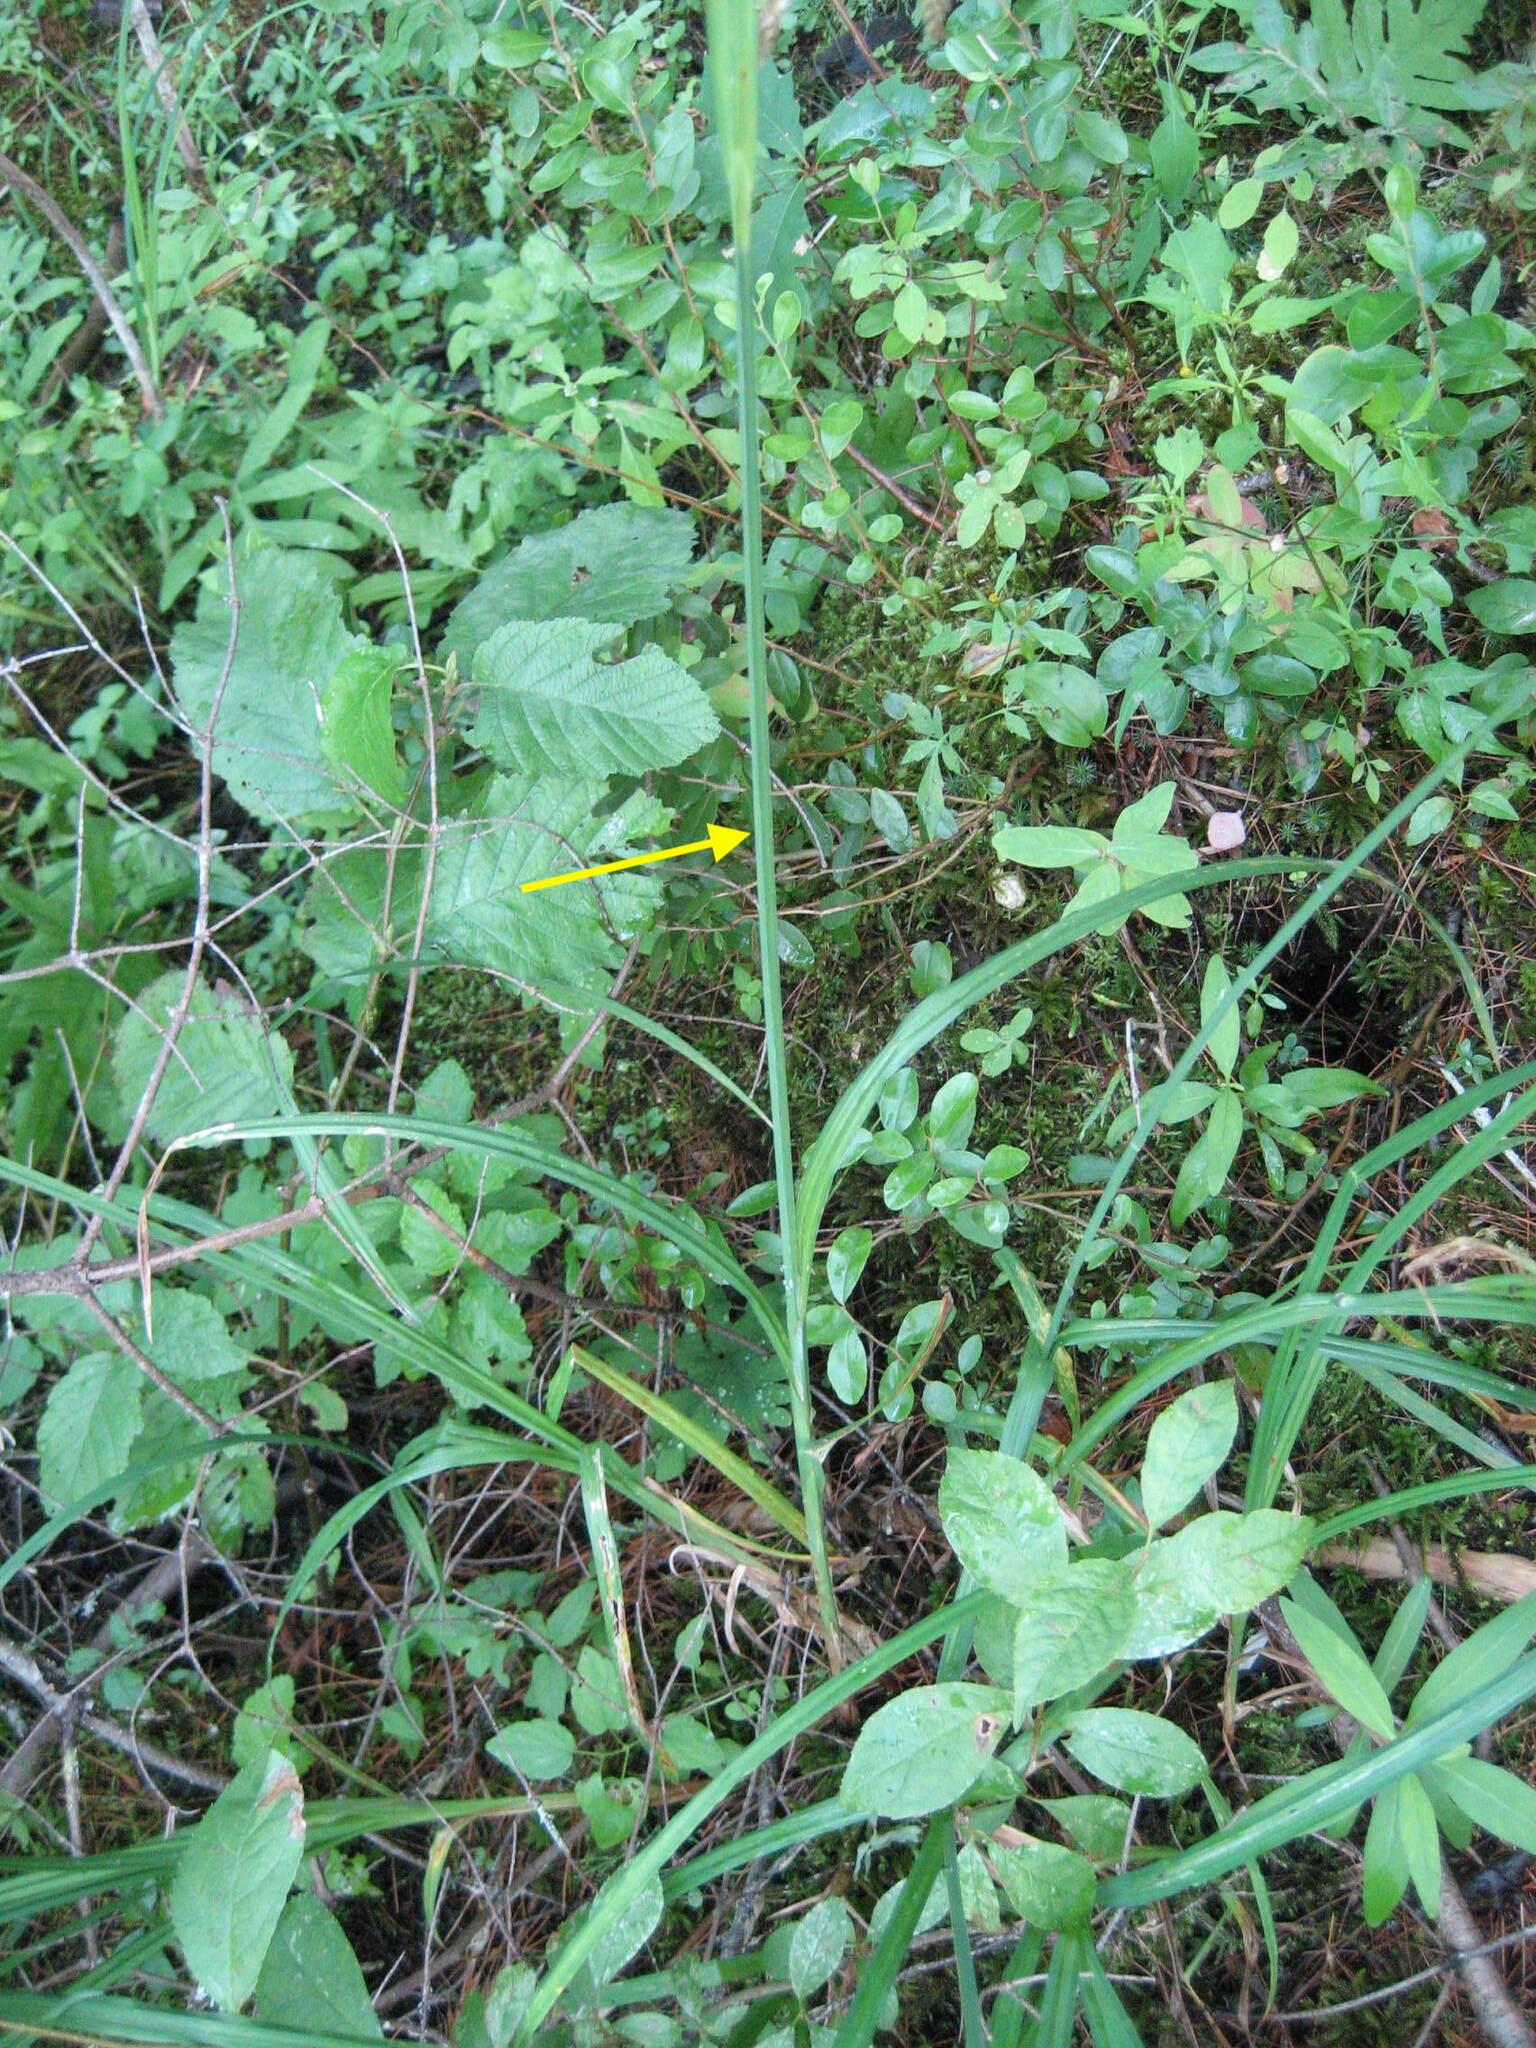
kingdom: Plantae
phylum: Tracheophyta
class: Liliopsida
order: Poales
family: Cyperaceae
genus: Carex
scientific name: Carex crinita
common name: Fringed sedge
